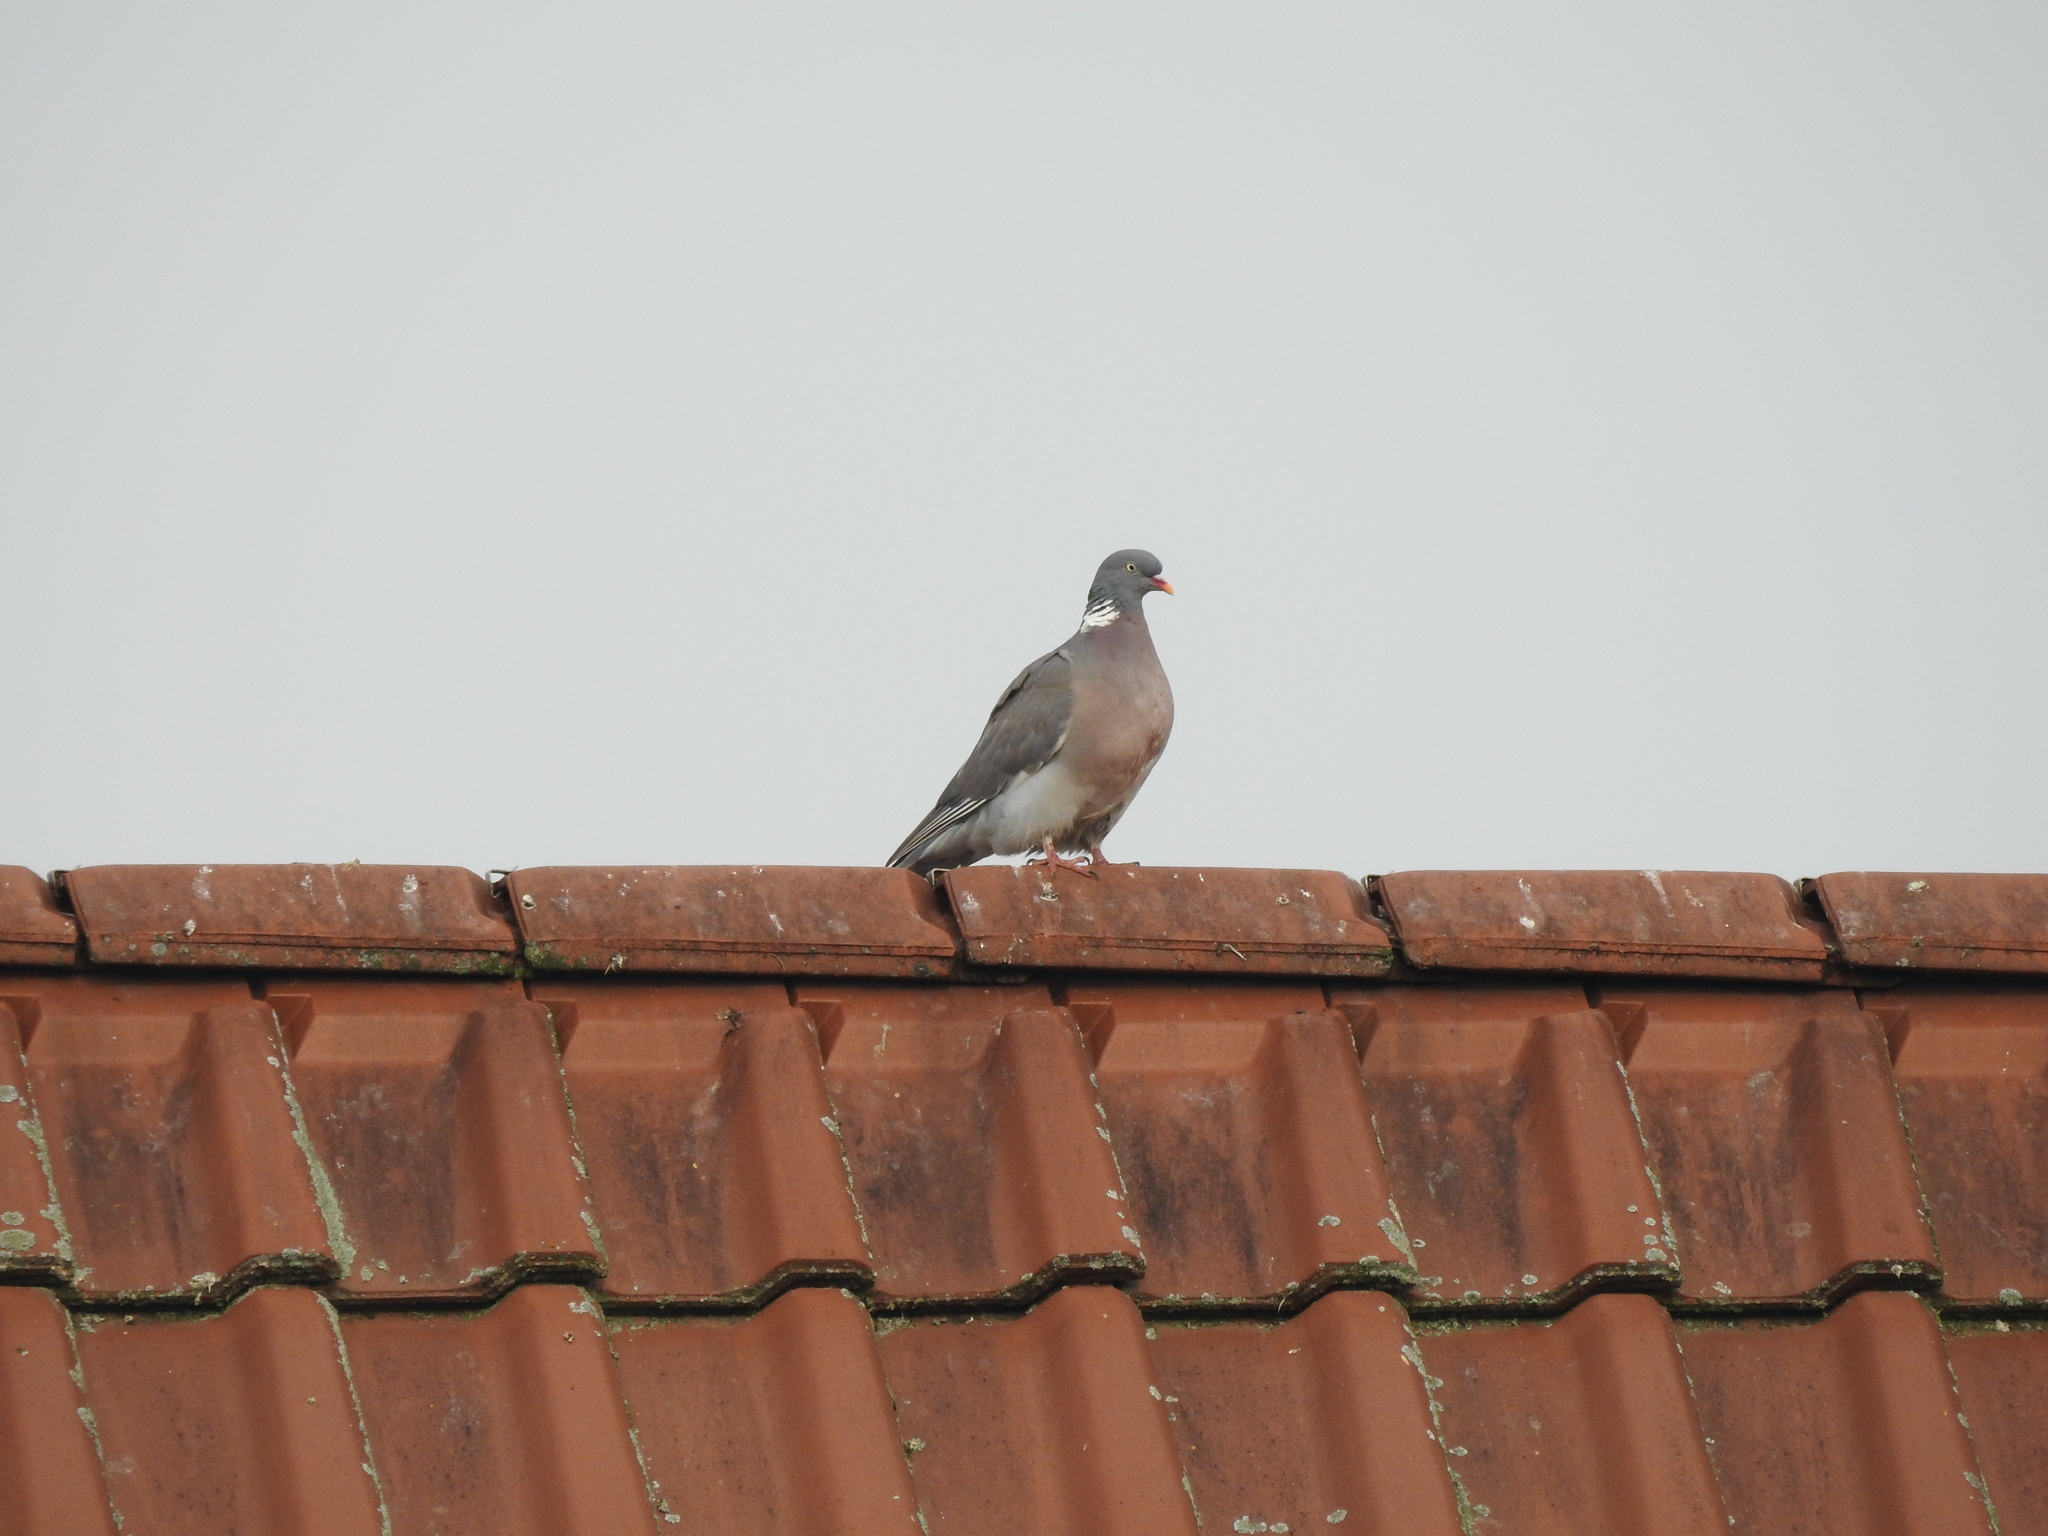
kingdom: Animalia
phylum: Chordata
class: Aves
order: Columbiformes
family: Columbidae
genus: Columba
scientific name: Columba palumbus
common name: Common wood pigeon
